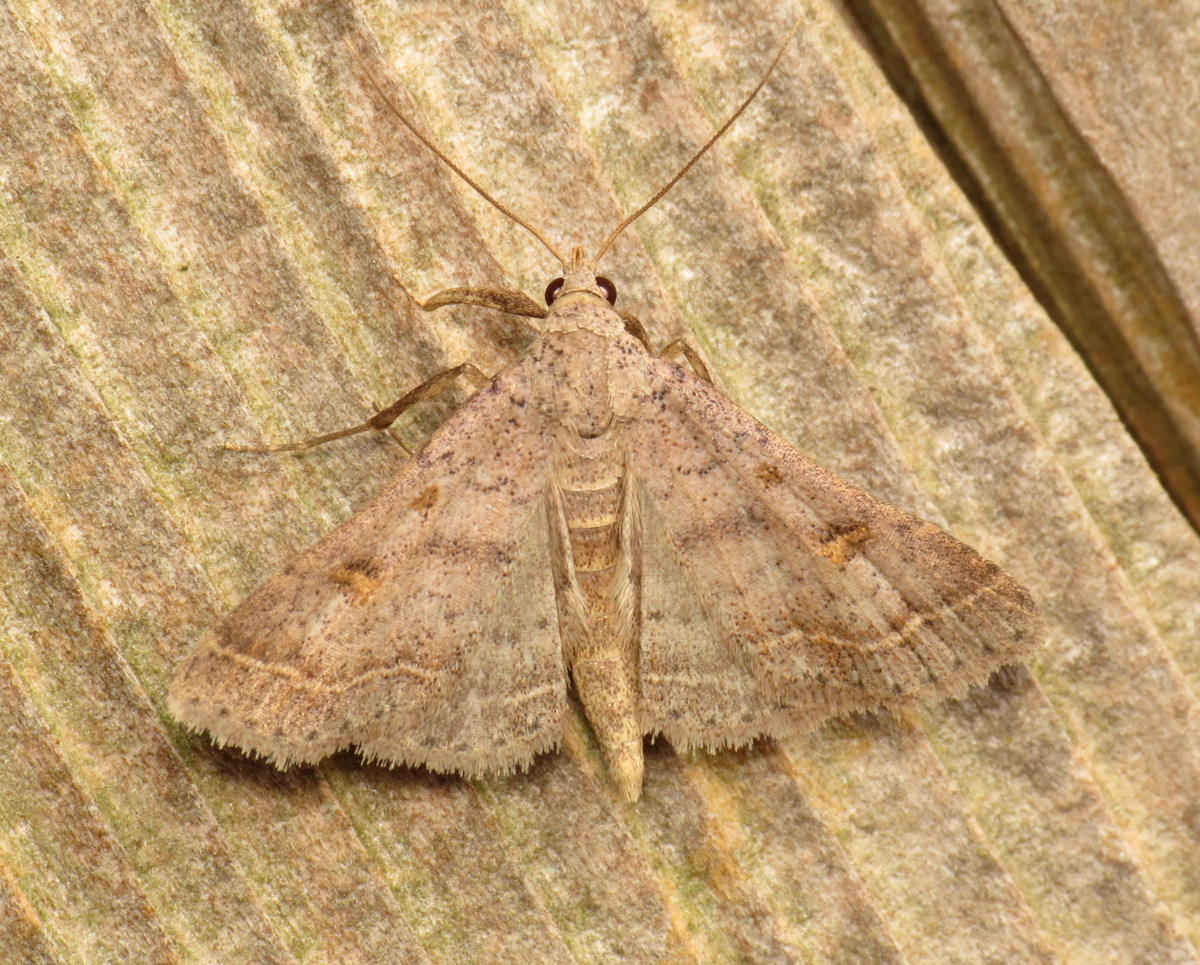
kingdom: Animalia
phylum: Arthropoda
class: Insecta
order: Lepidoptera
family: Erebidae
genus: Bleptina
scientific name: Bleptina caradrinalis
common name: Bent-winged owlet
